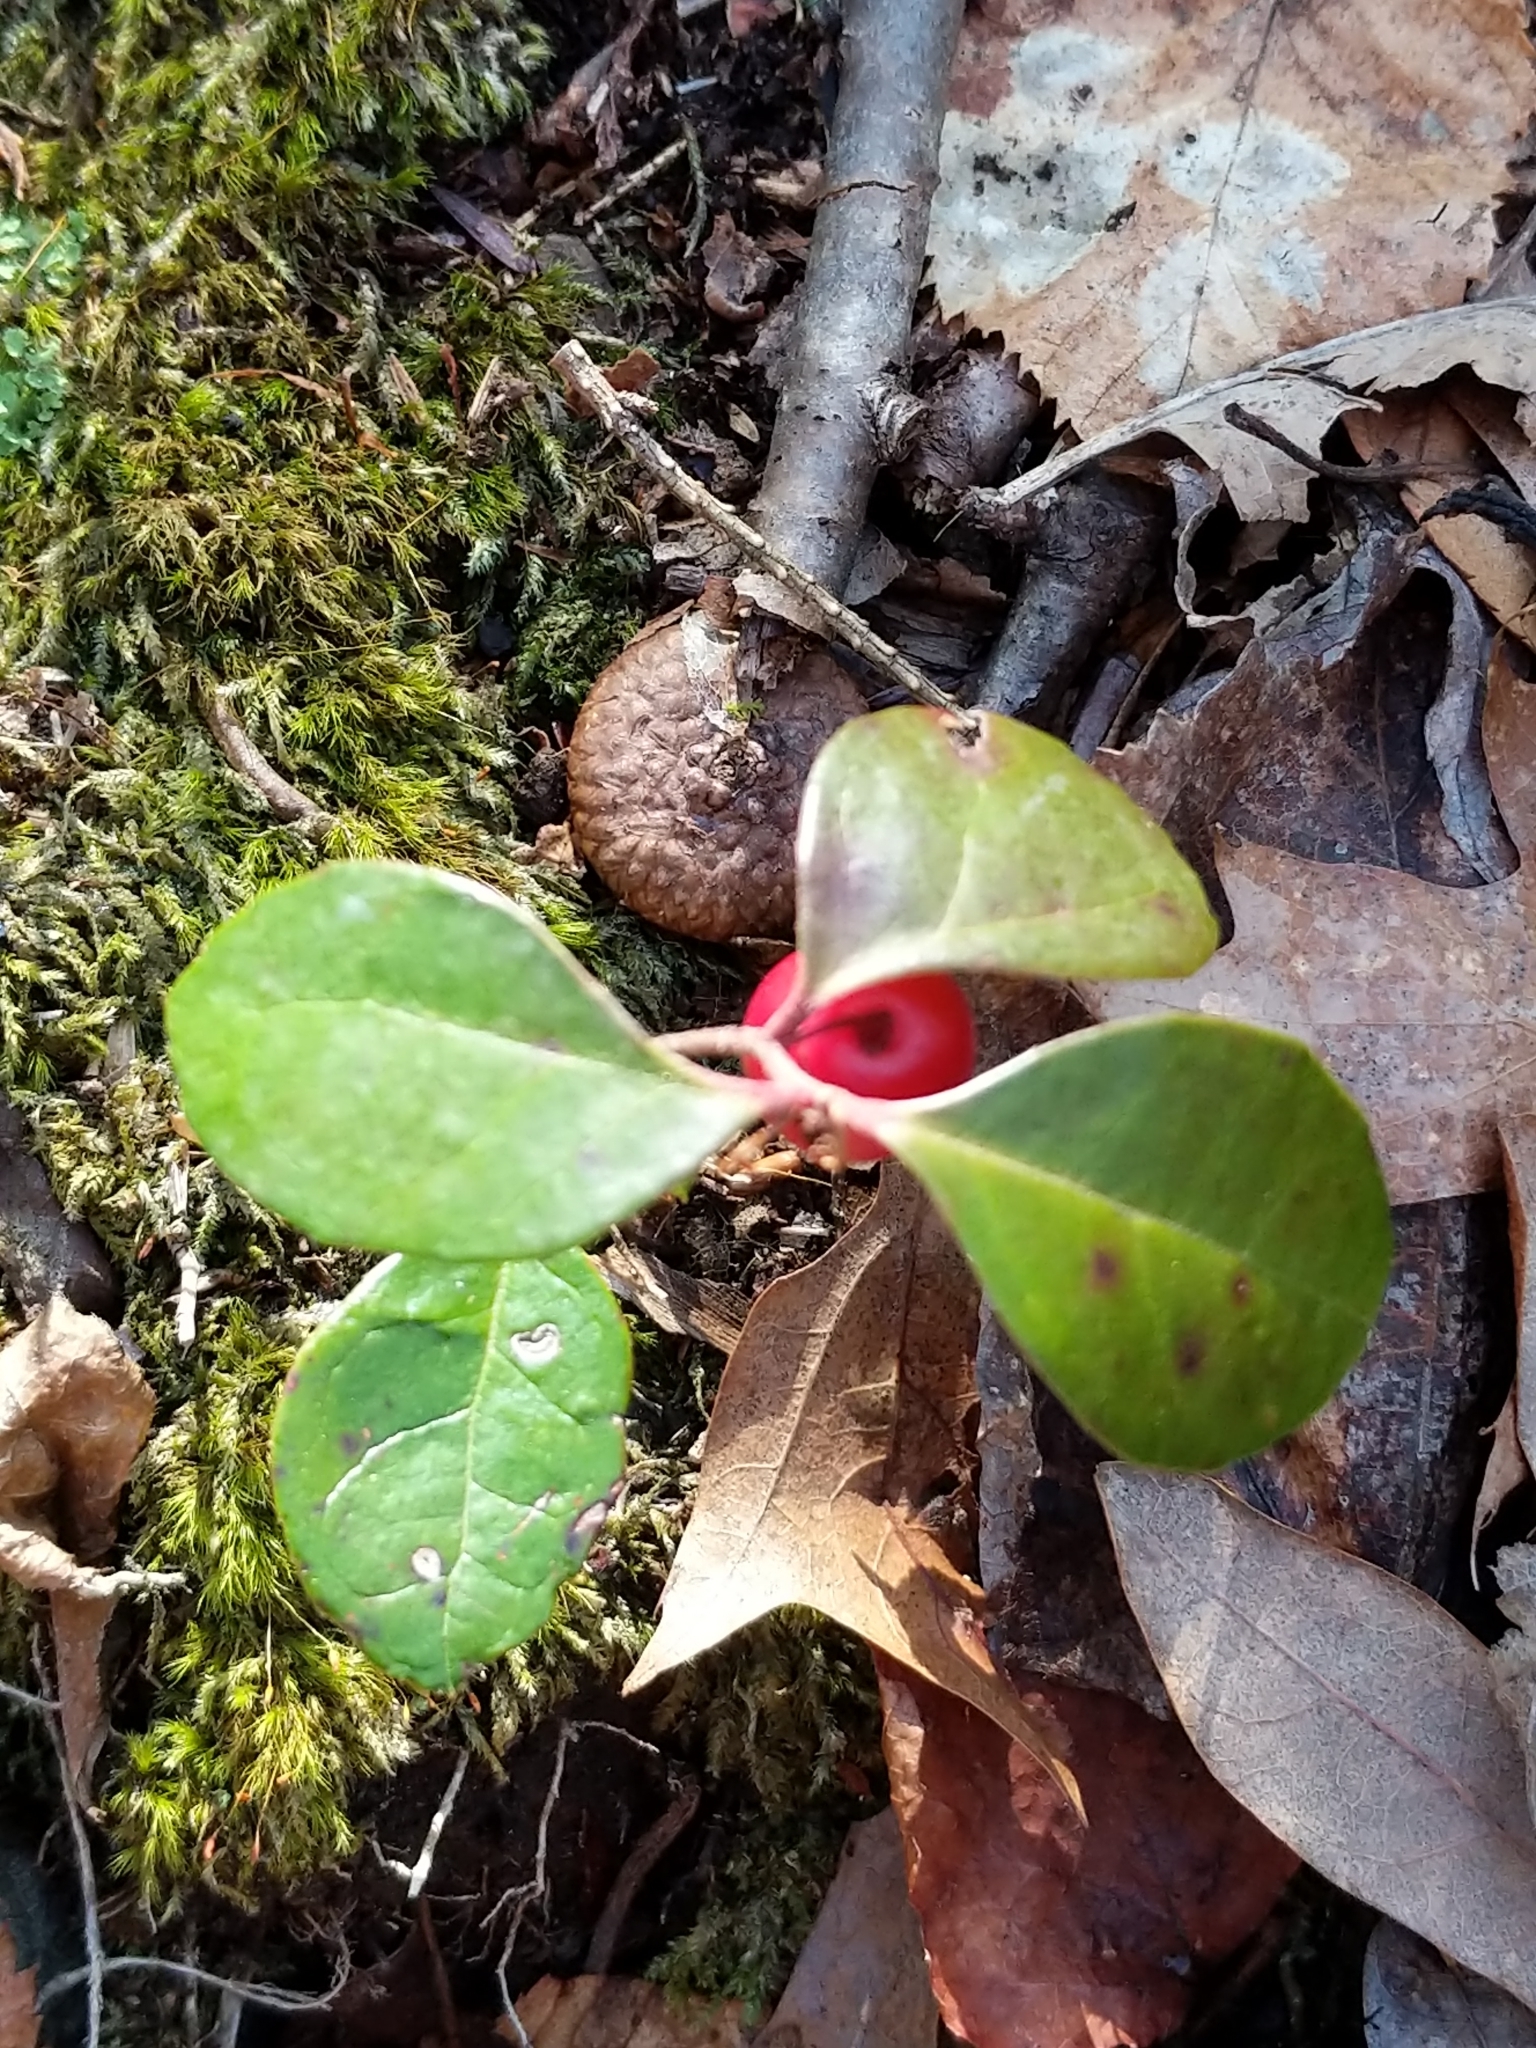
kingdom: Plantae
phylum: Tracheophyta
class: Magnoliopsida
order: Ericales
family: Ericaceae
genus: Gaultheria
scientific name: Gaultheria procumbens
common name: Checkerberry
